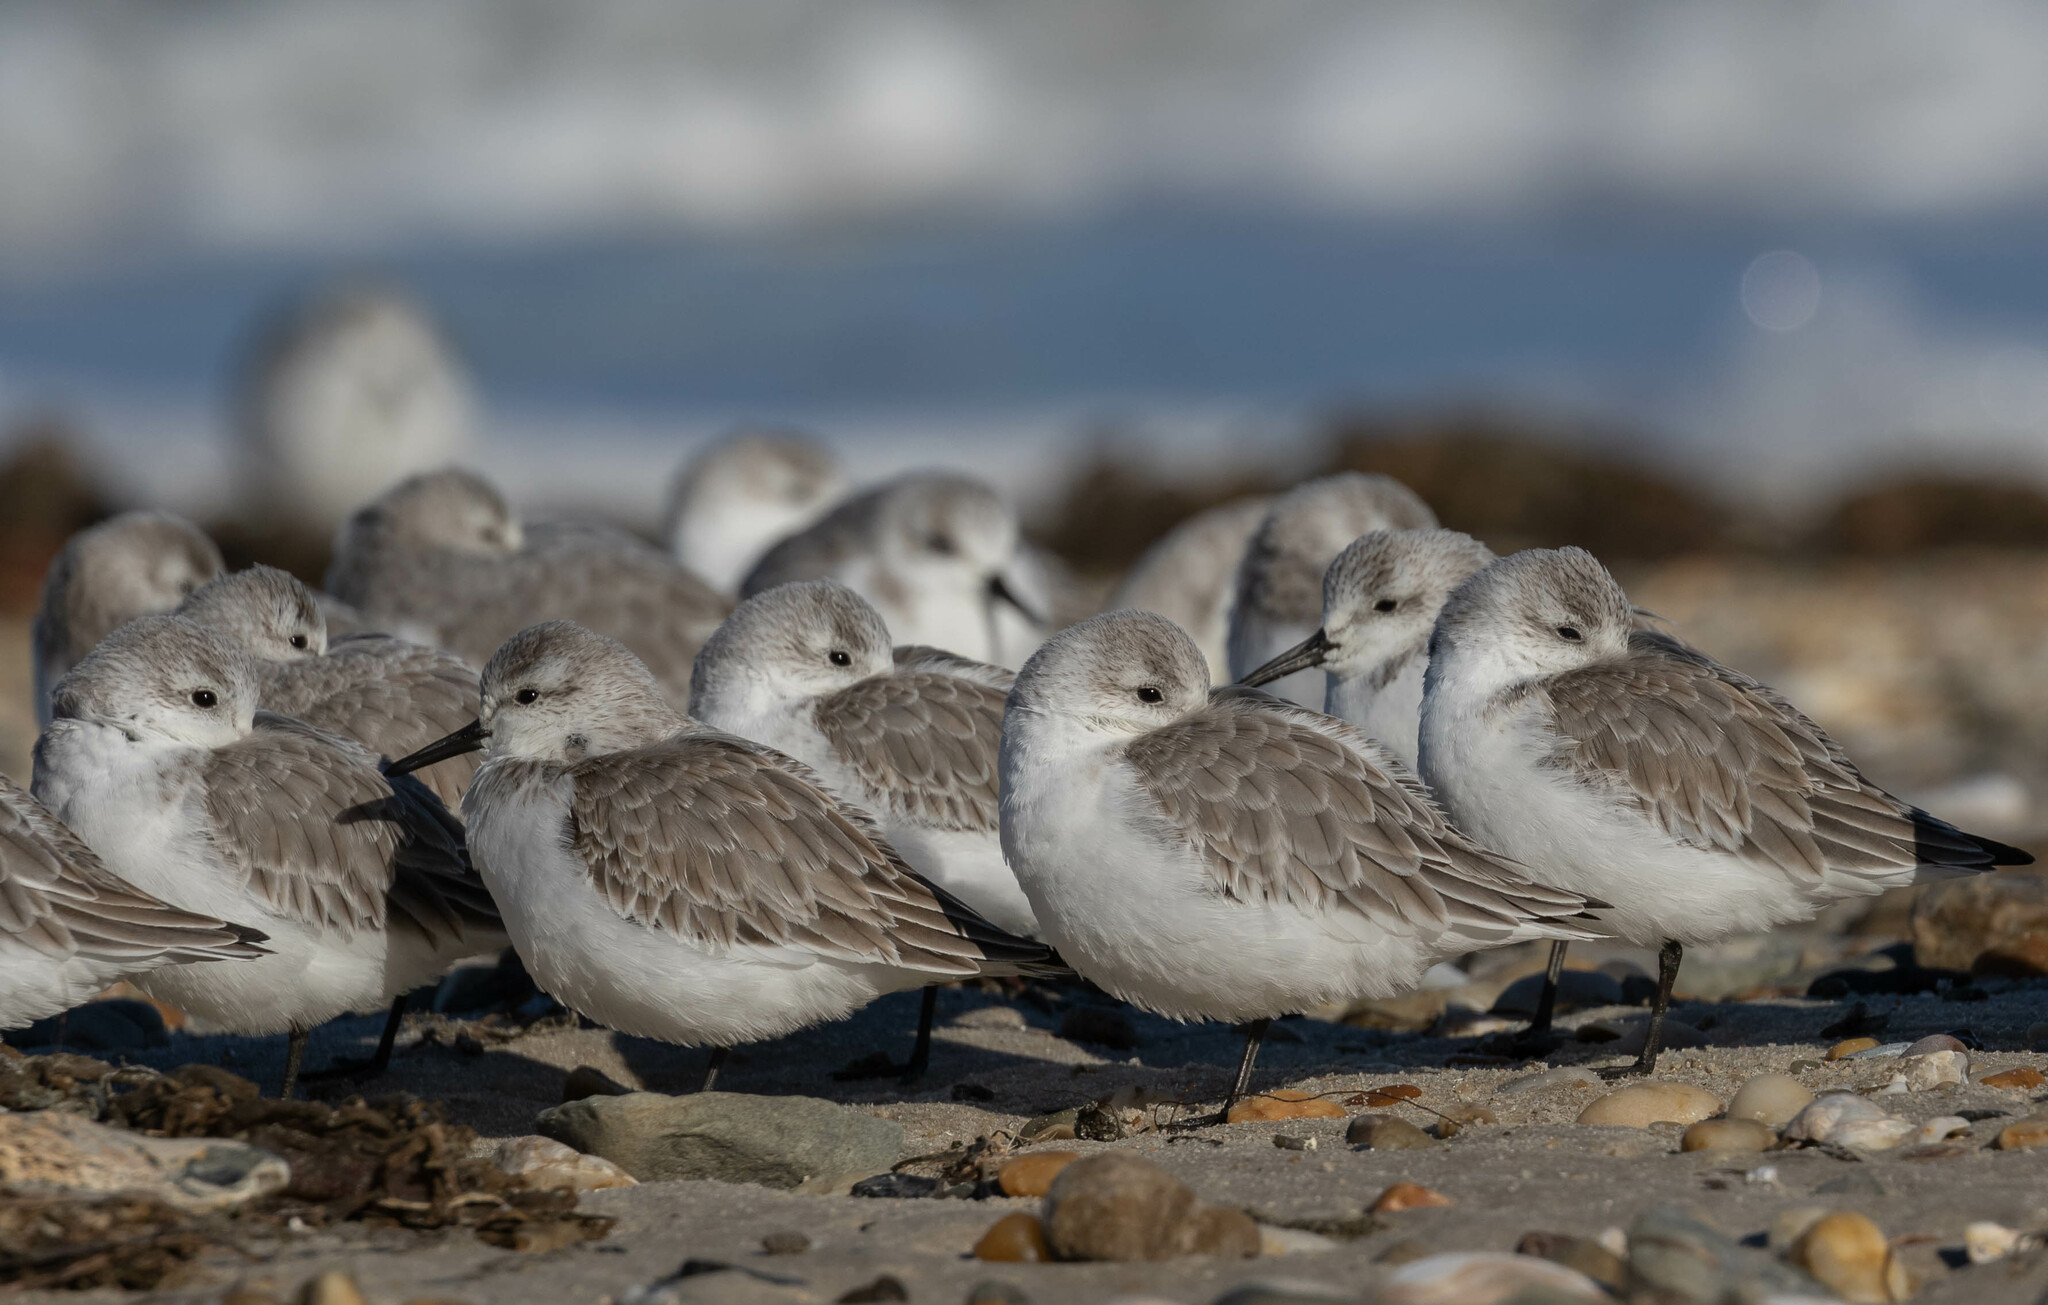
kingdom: Animalia
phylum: Chordata
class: Aves
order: Charadriiformes
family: Scolopacidae
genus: Calidris
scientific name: Calidris alba
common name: Sanderling
